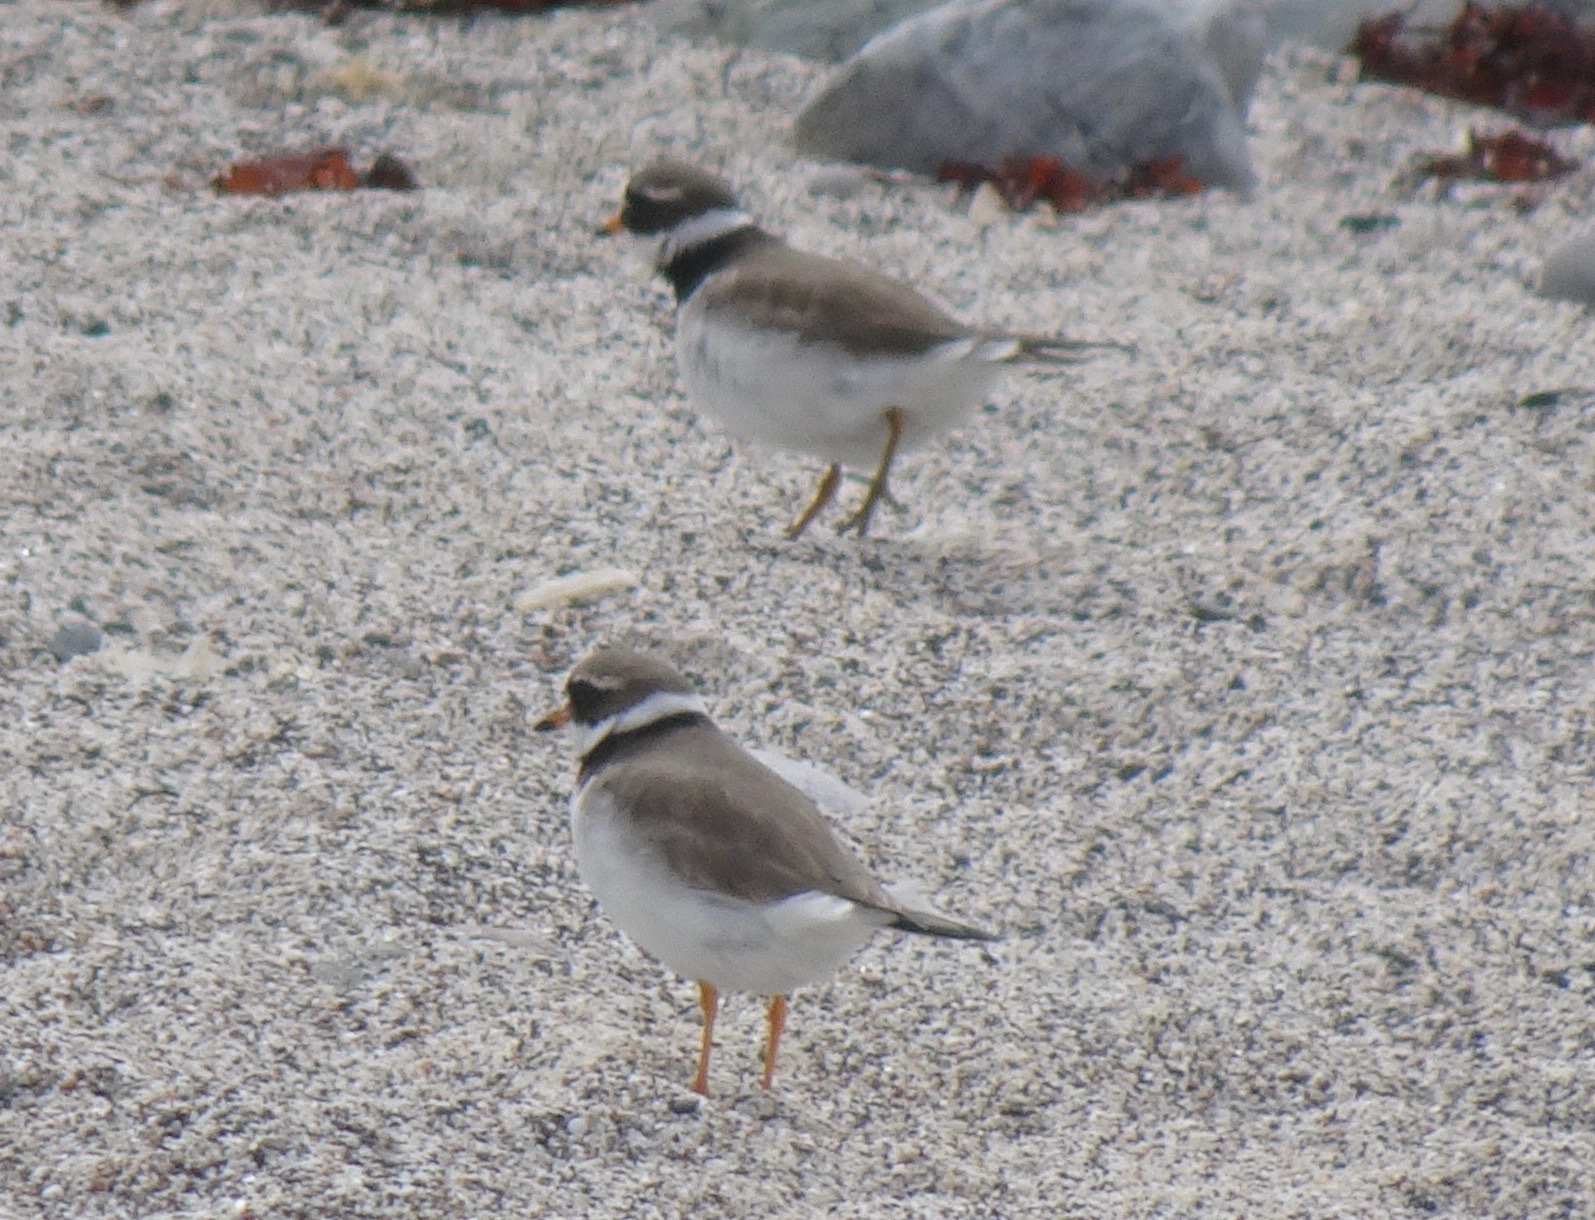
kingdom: Animalia
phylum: Chordata
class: Aves
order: Charadriiformes
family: Charadriidae
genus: Charadrius
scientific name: Charadrius hiaticula
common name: Common ringed plover
